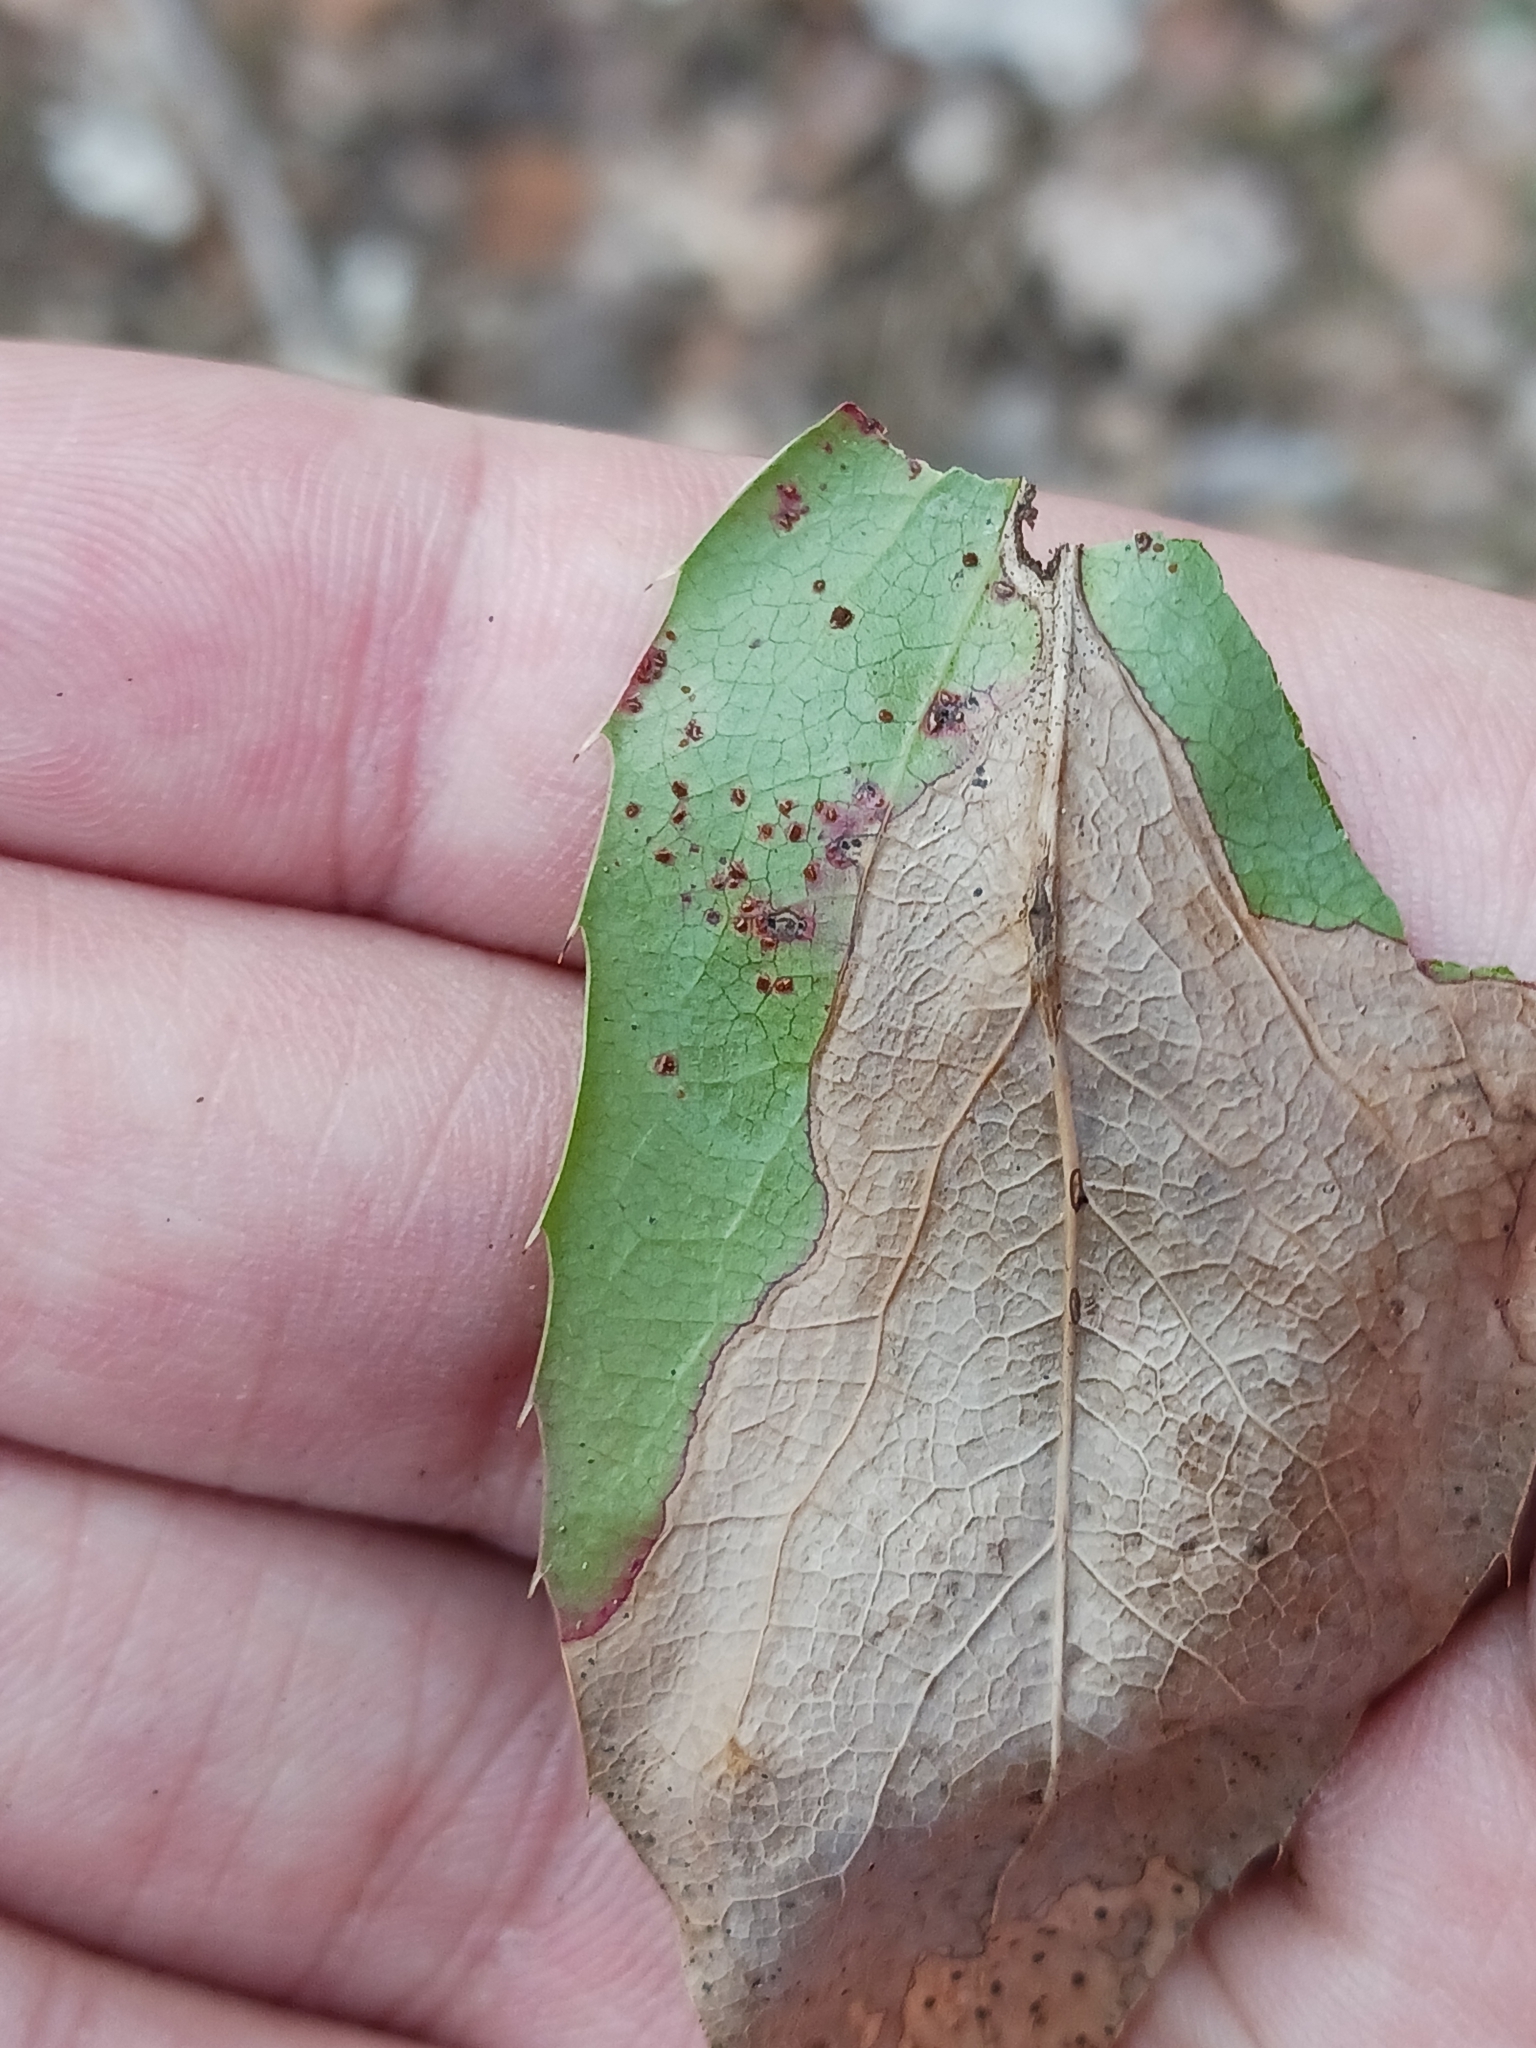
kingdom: Fungi
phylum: Basidiomycota
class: Pucciniomycetes
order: Pucciniales
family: Pucciniaceae
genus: Cumminsiella
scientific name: Cumminsiella mirabilissima
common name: Mahonia rust
